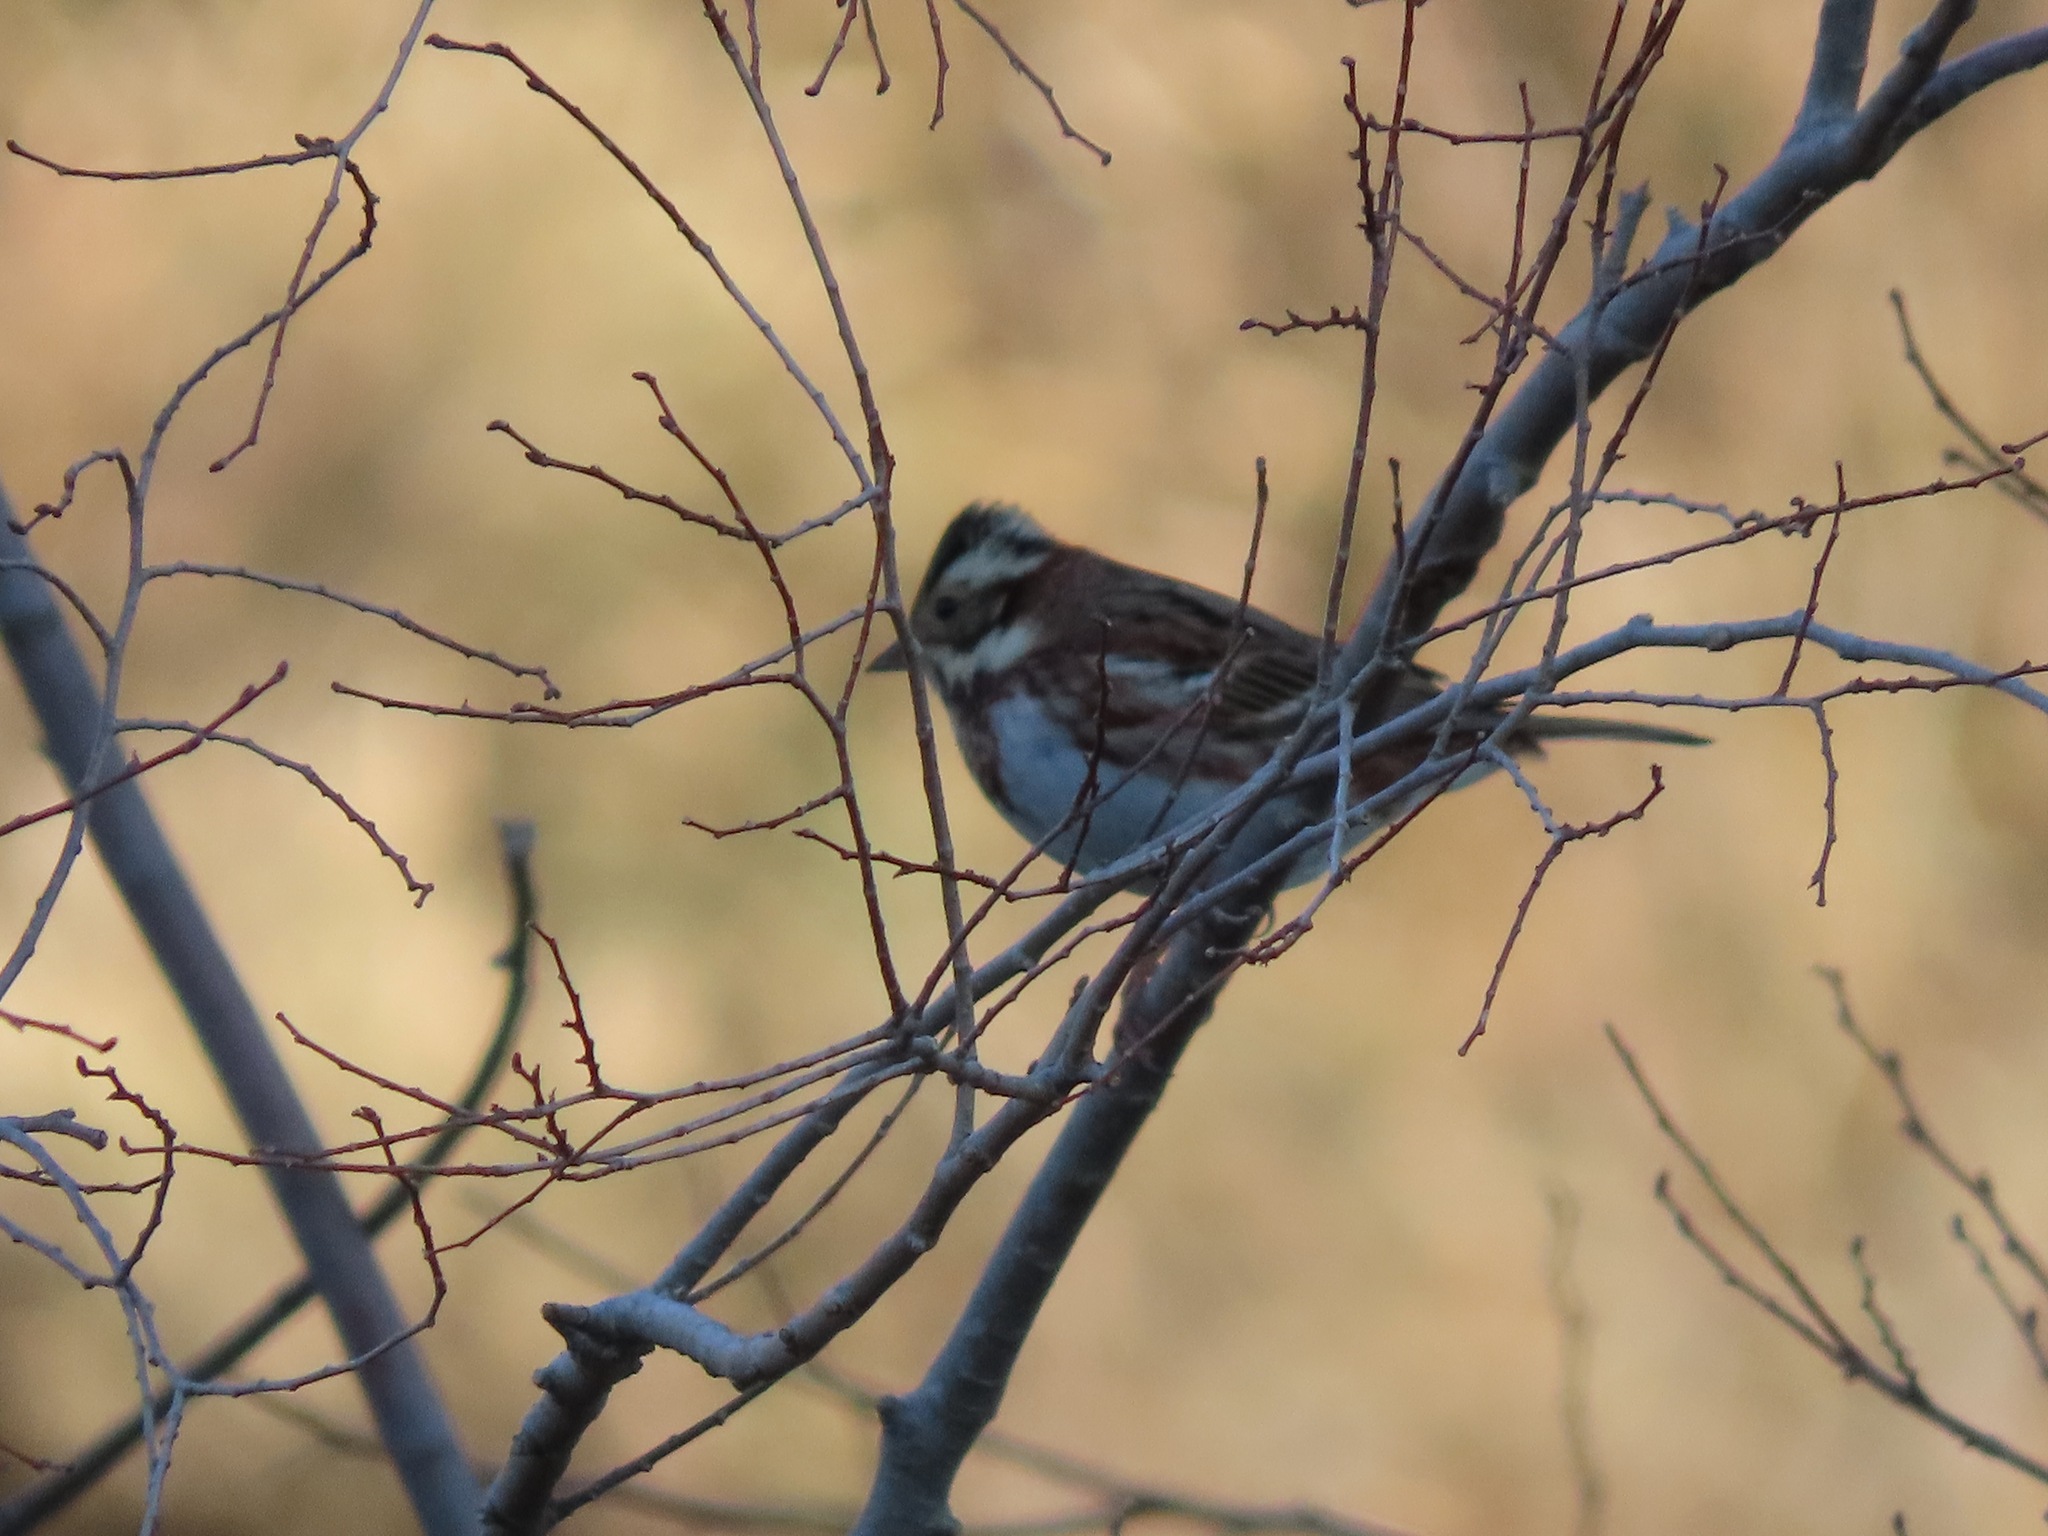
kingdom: Animalia
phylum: Chordata
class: Aves
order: Passeriformes
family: Emberizidae
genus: Emberiza
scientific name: Emberiza rustica
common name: Rustic bunting
